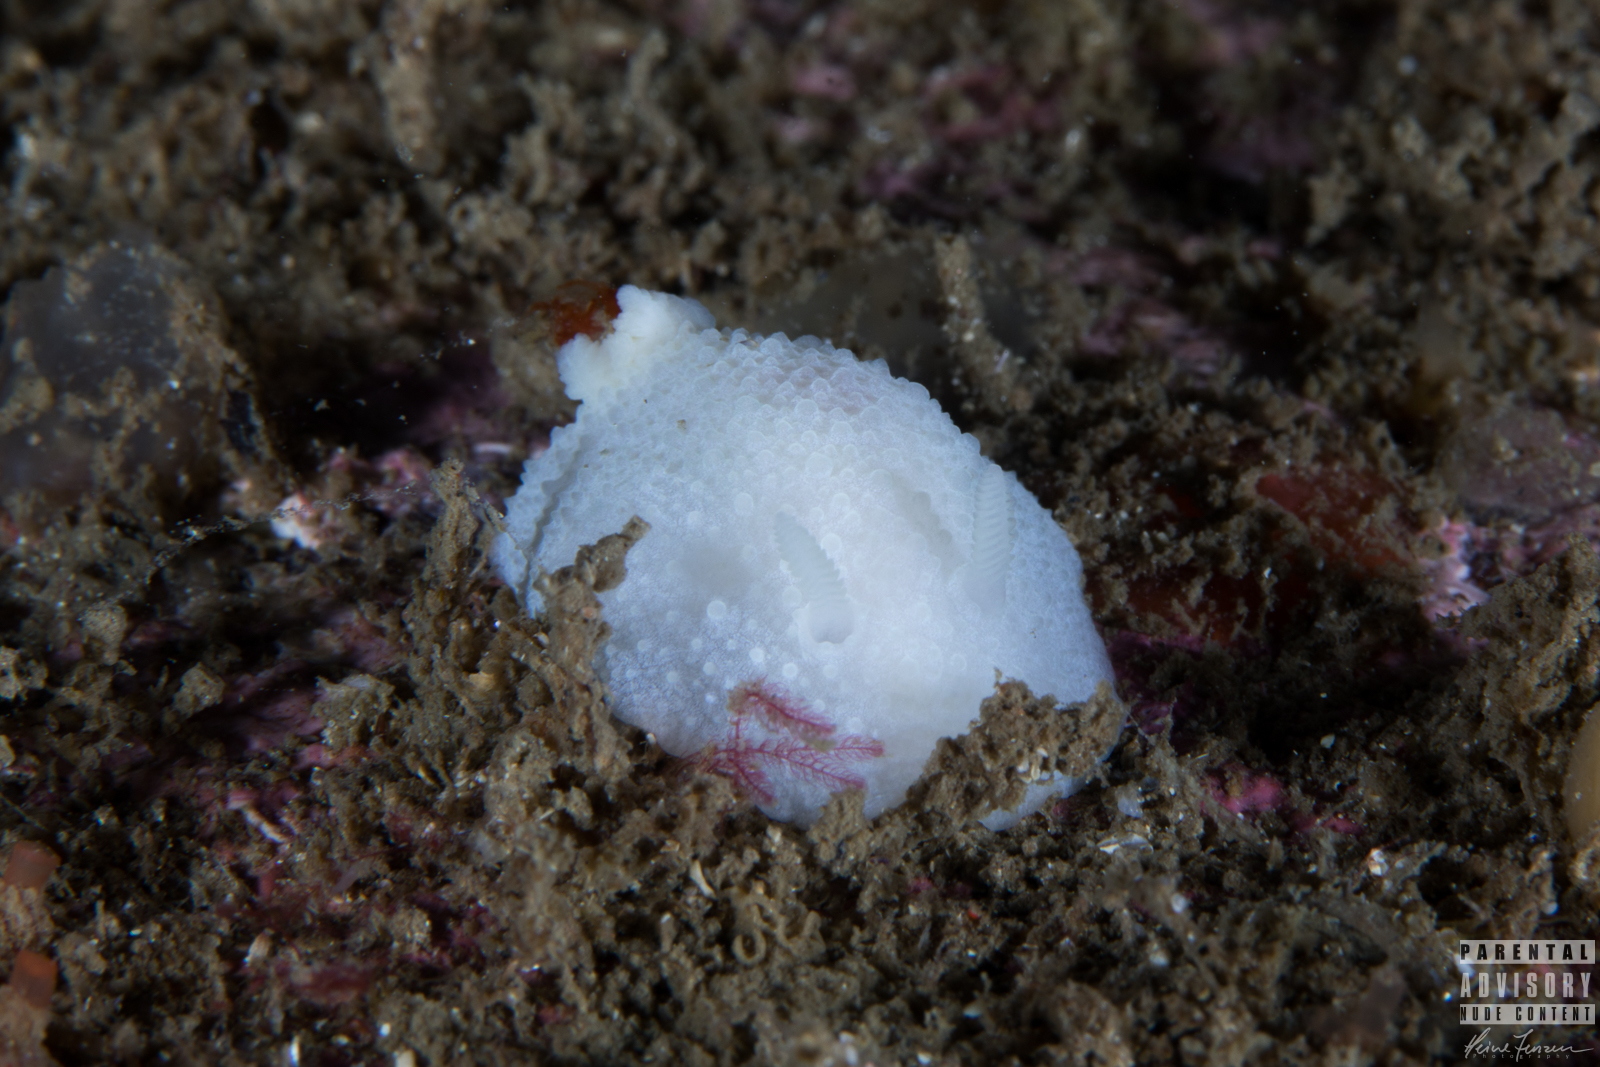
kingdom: Animalia
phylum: Mollusca
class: Gastropoda
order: Nudibranchia
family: Cadlinidae
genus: Aldisa
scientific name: Aldisa zetlandica
